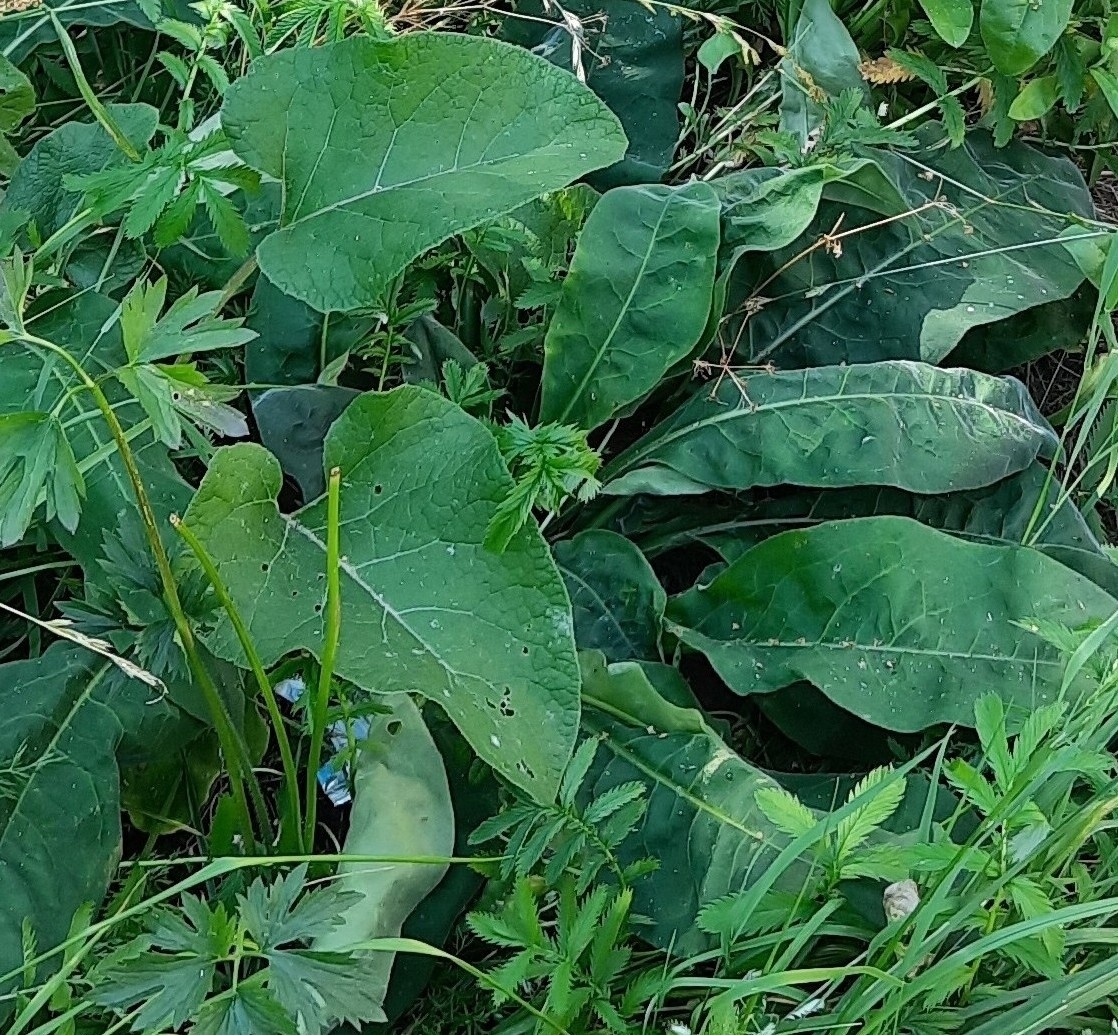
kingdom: Plantae
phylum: Tracheophyta
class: Magnoliopsida
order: Boraginales
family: Boraginaceae
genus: Pulmonaria
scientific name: Pulmonaria mollis
